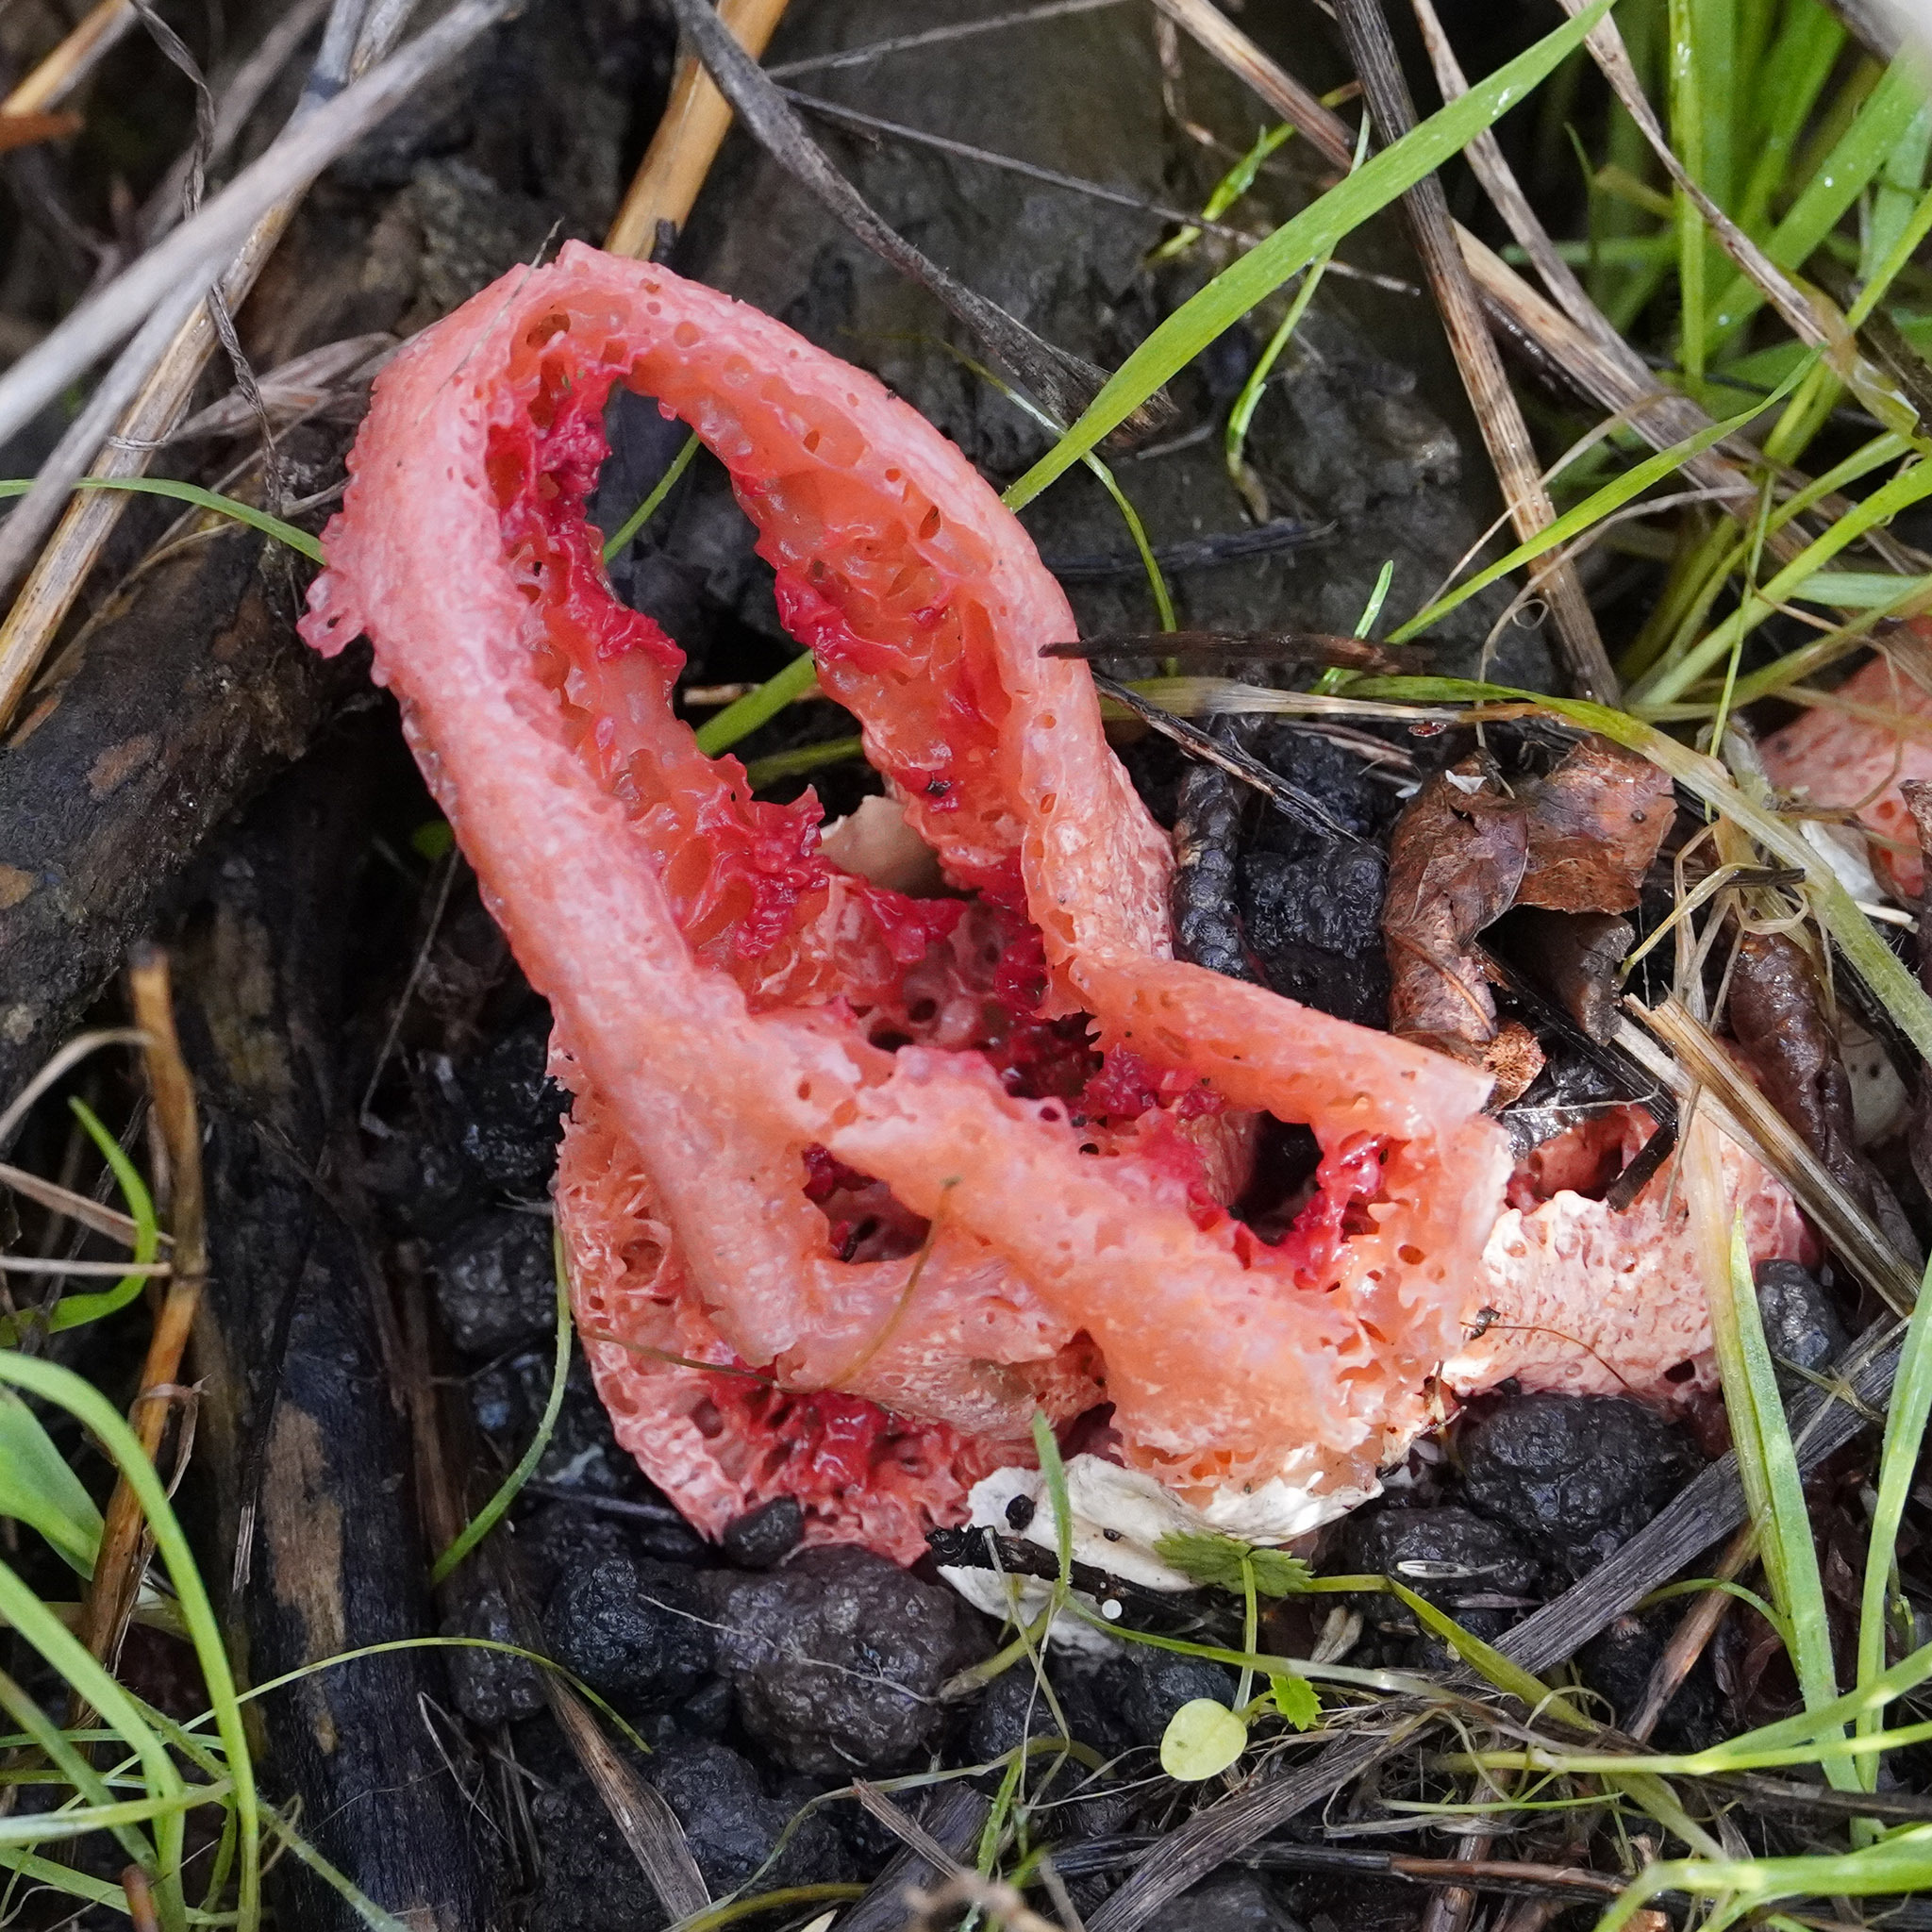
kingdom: Fungi
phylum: Basidiomycota
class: Agaricomycetes
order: Phallales
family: Phallaceae
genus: Clathrus
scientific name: Clathrus ruber
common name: Red cage
